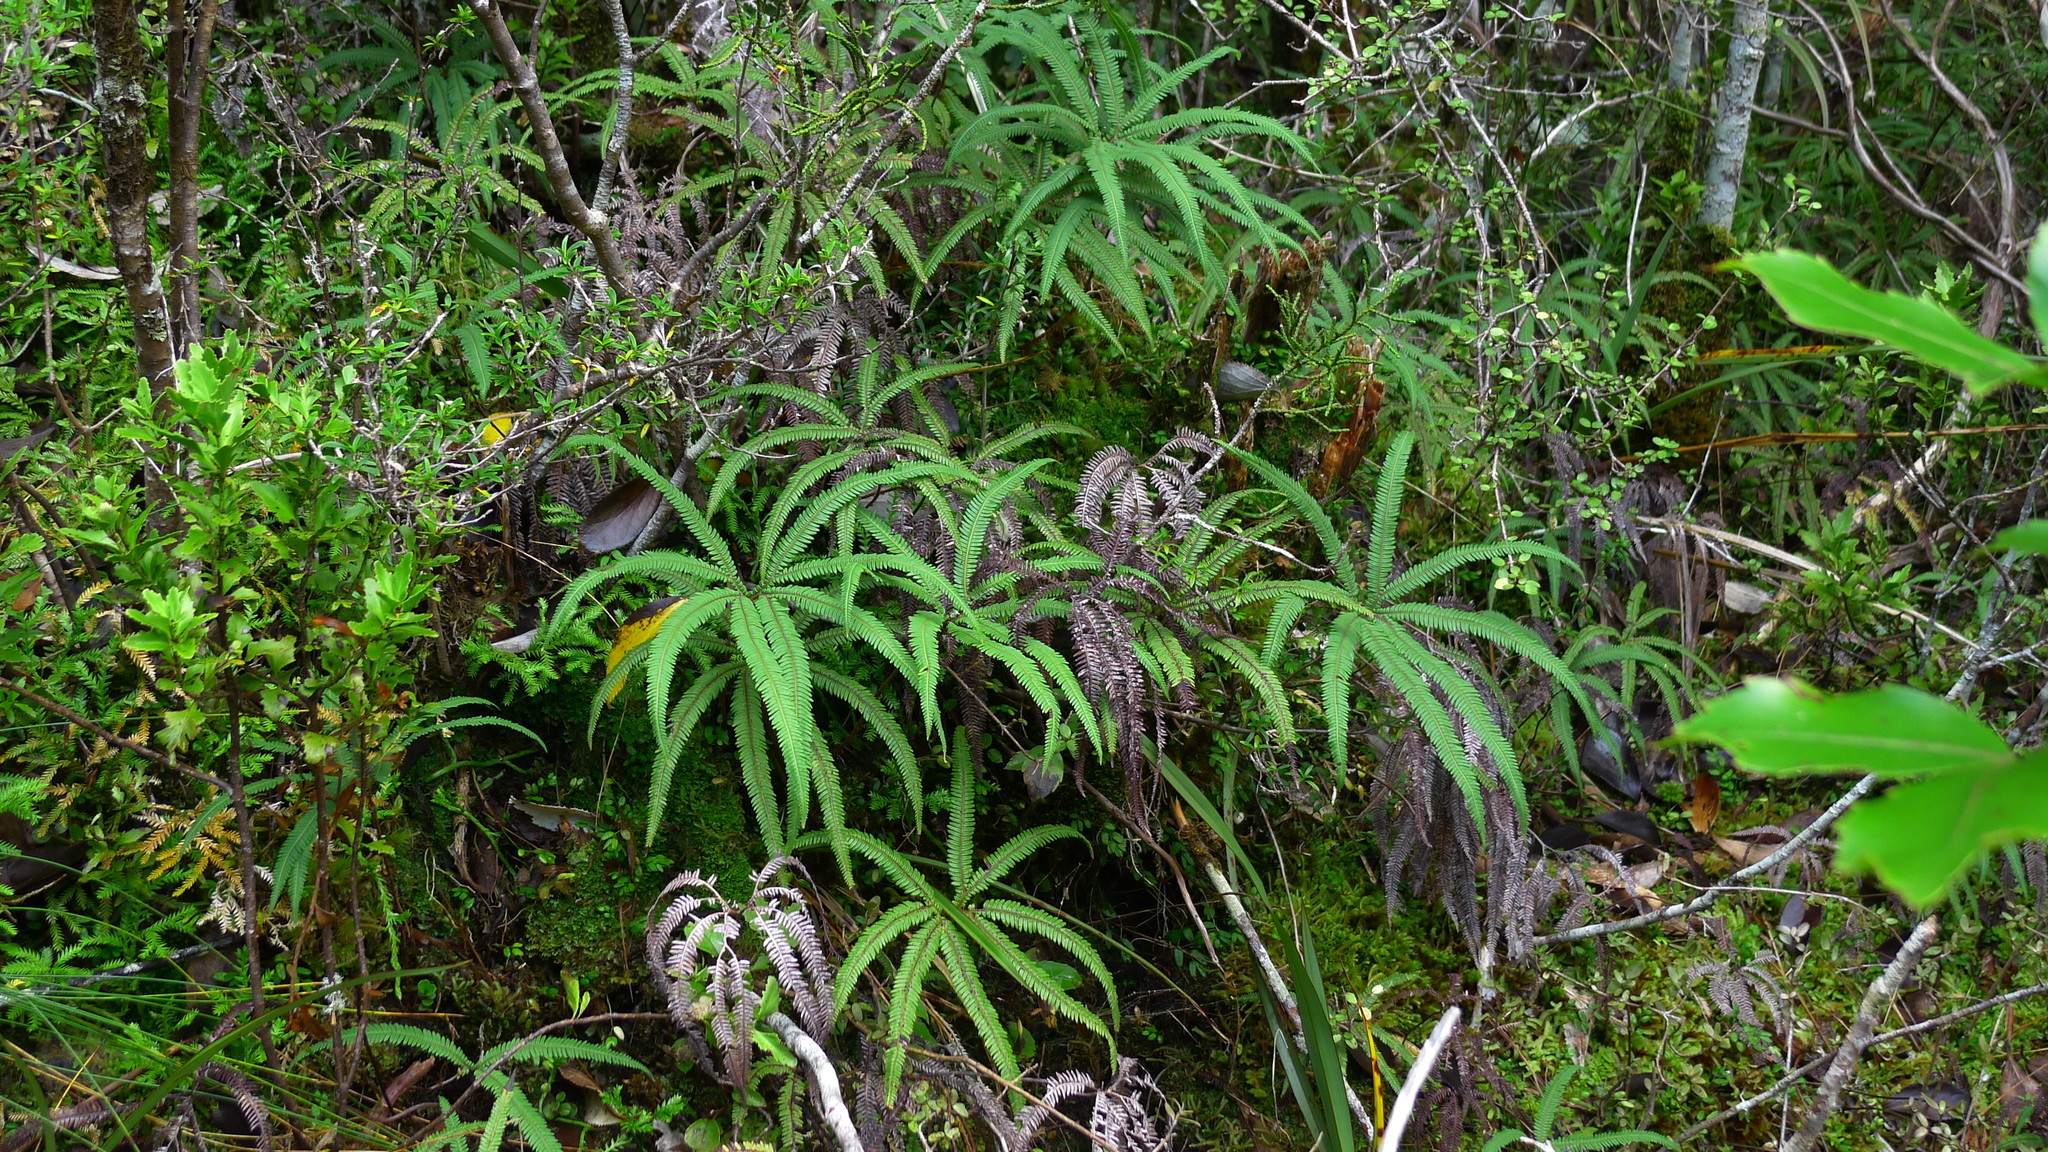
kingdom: Plantae
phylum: Tracheophyta
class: Polypodiopsida
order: Gleicheniales
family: Gleicheniaceae
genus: Sticherus
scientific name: Sticherus cunninghamii
